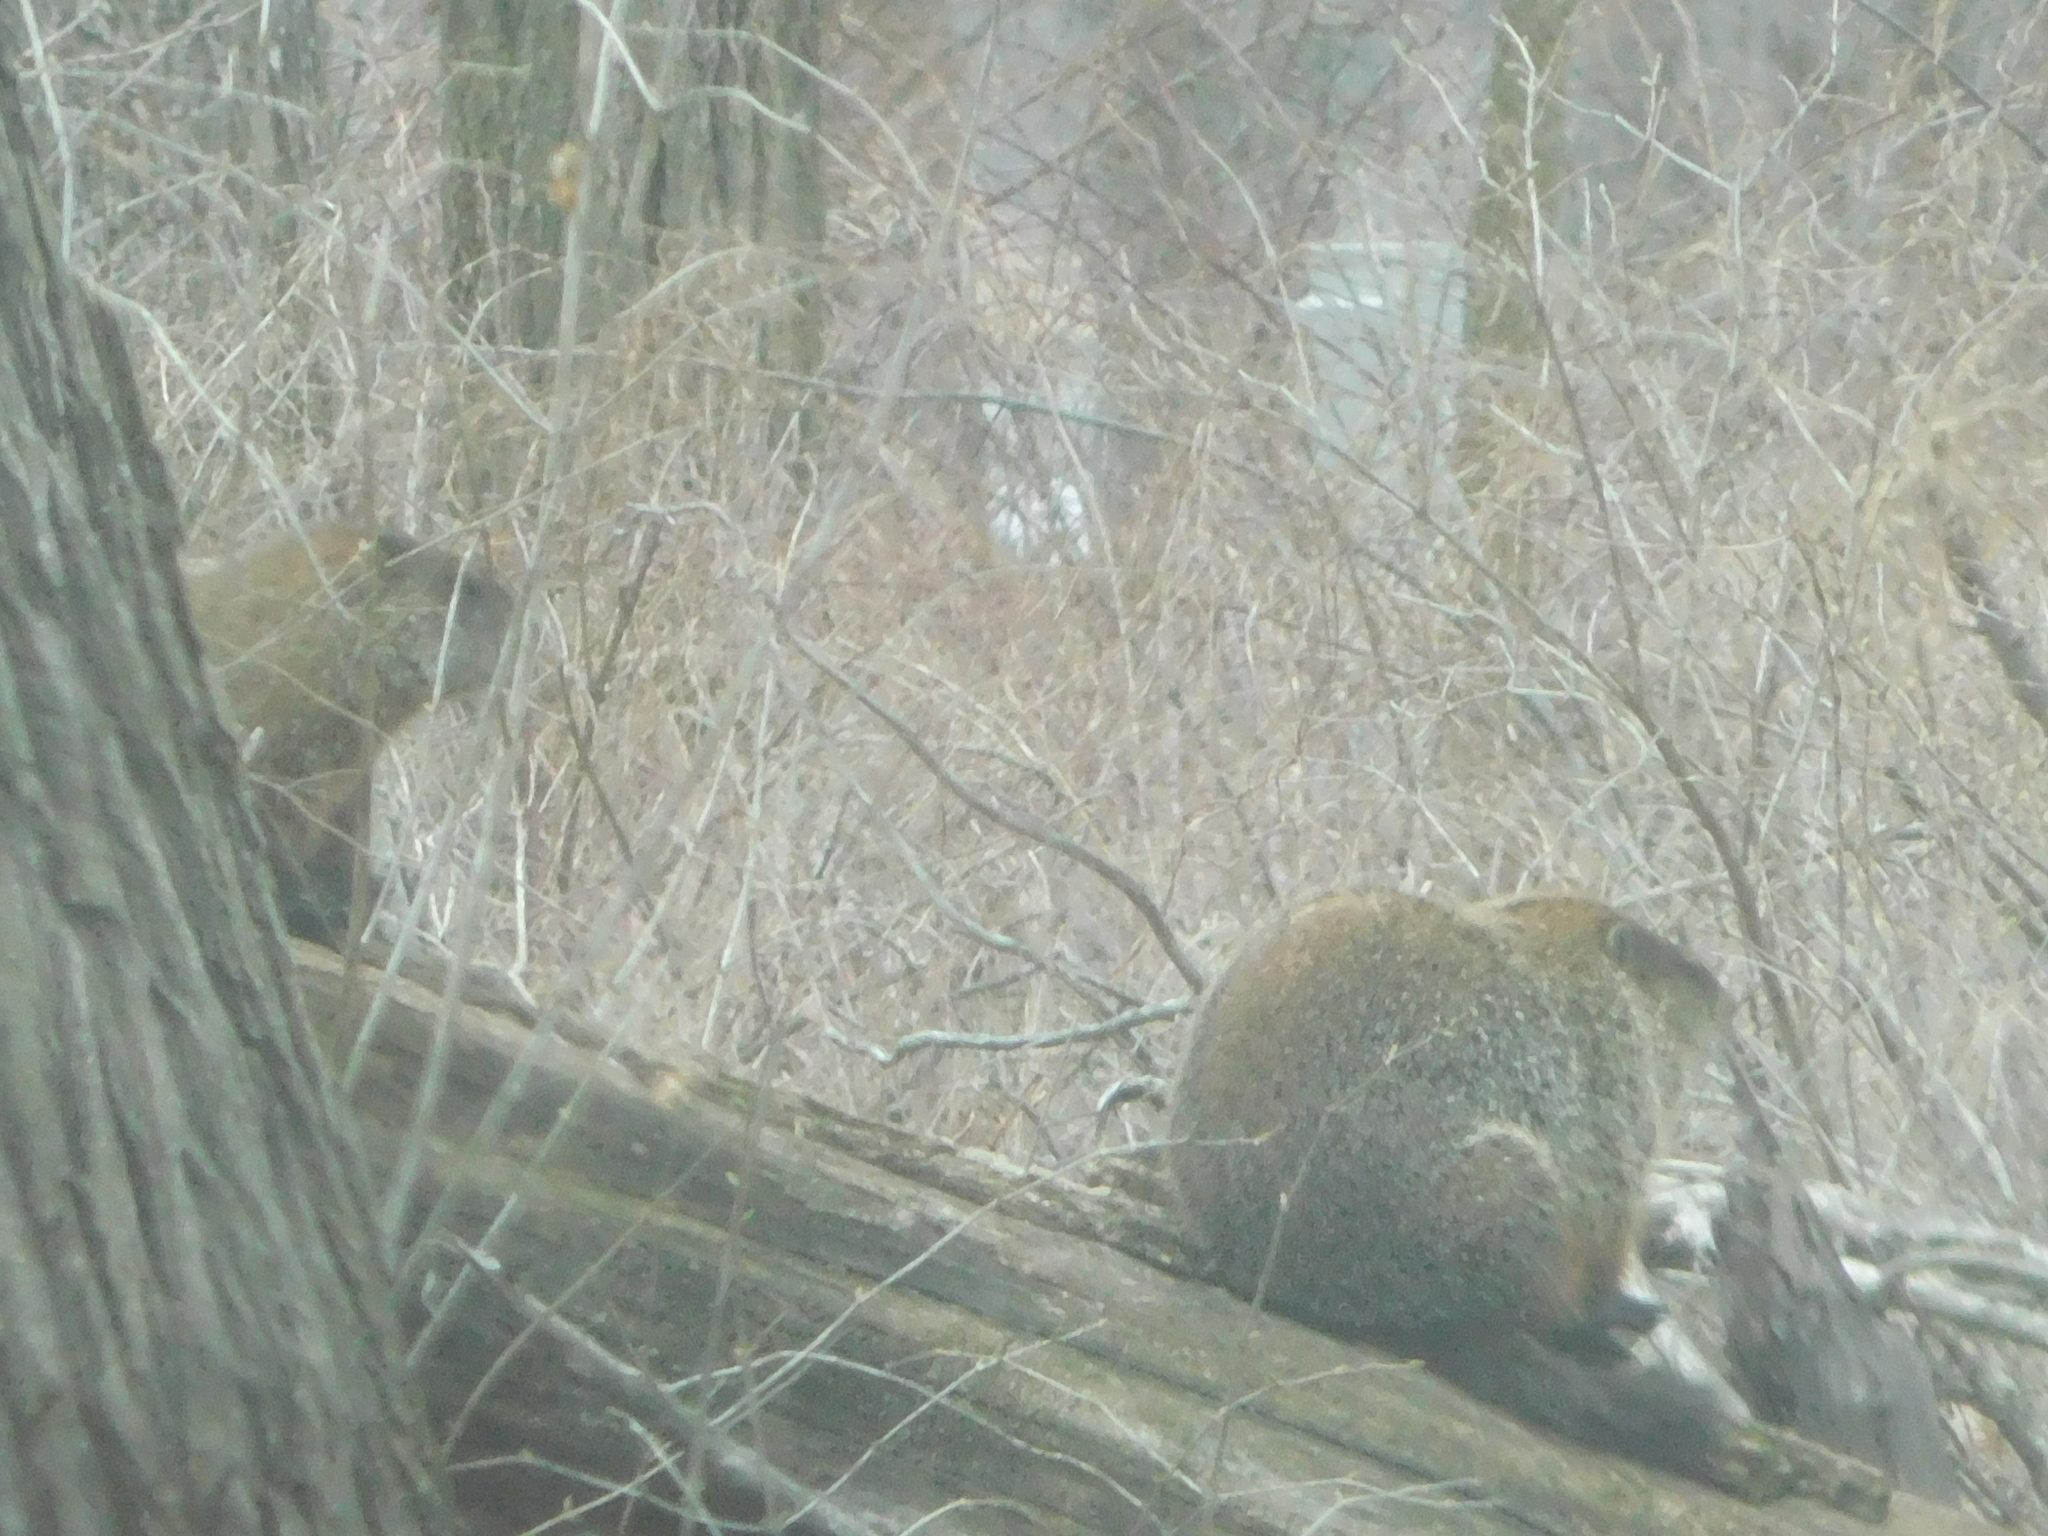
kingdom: Animalia
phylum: Chordata
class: Mammalia
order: Rodentia
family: Sciuridae
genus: Marmota
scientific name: Marmota monax
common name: Groundhog
